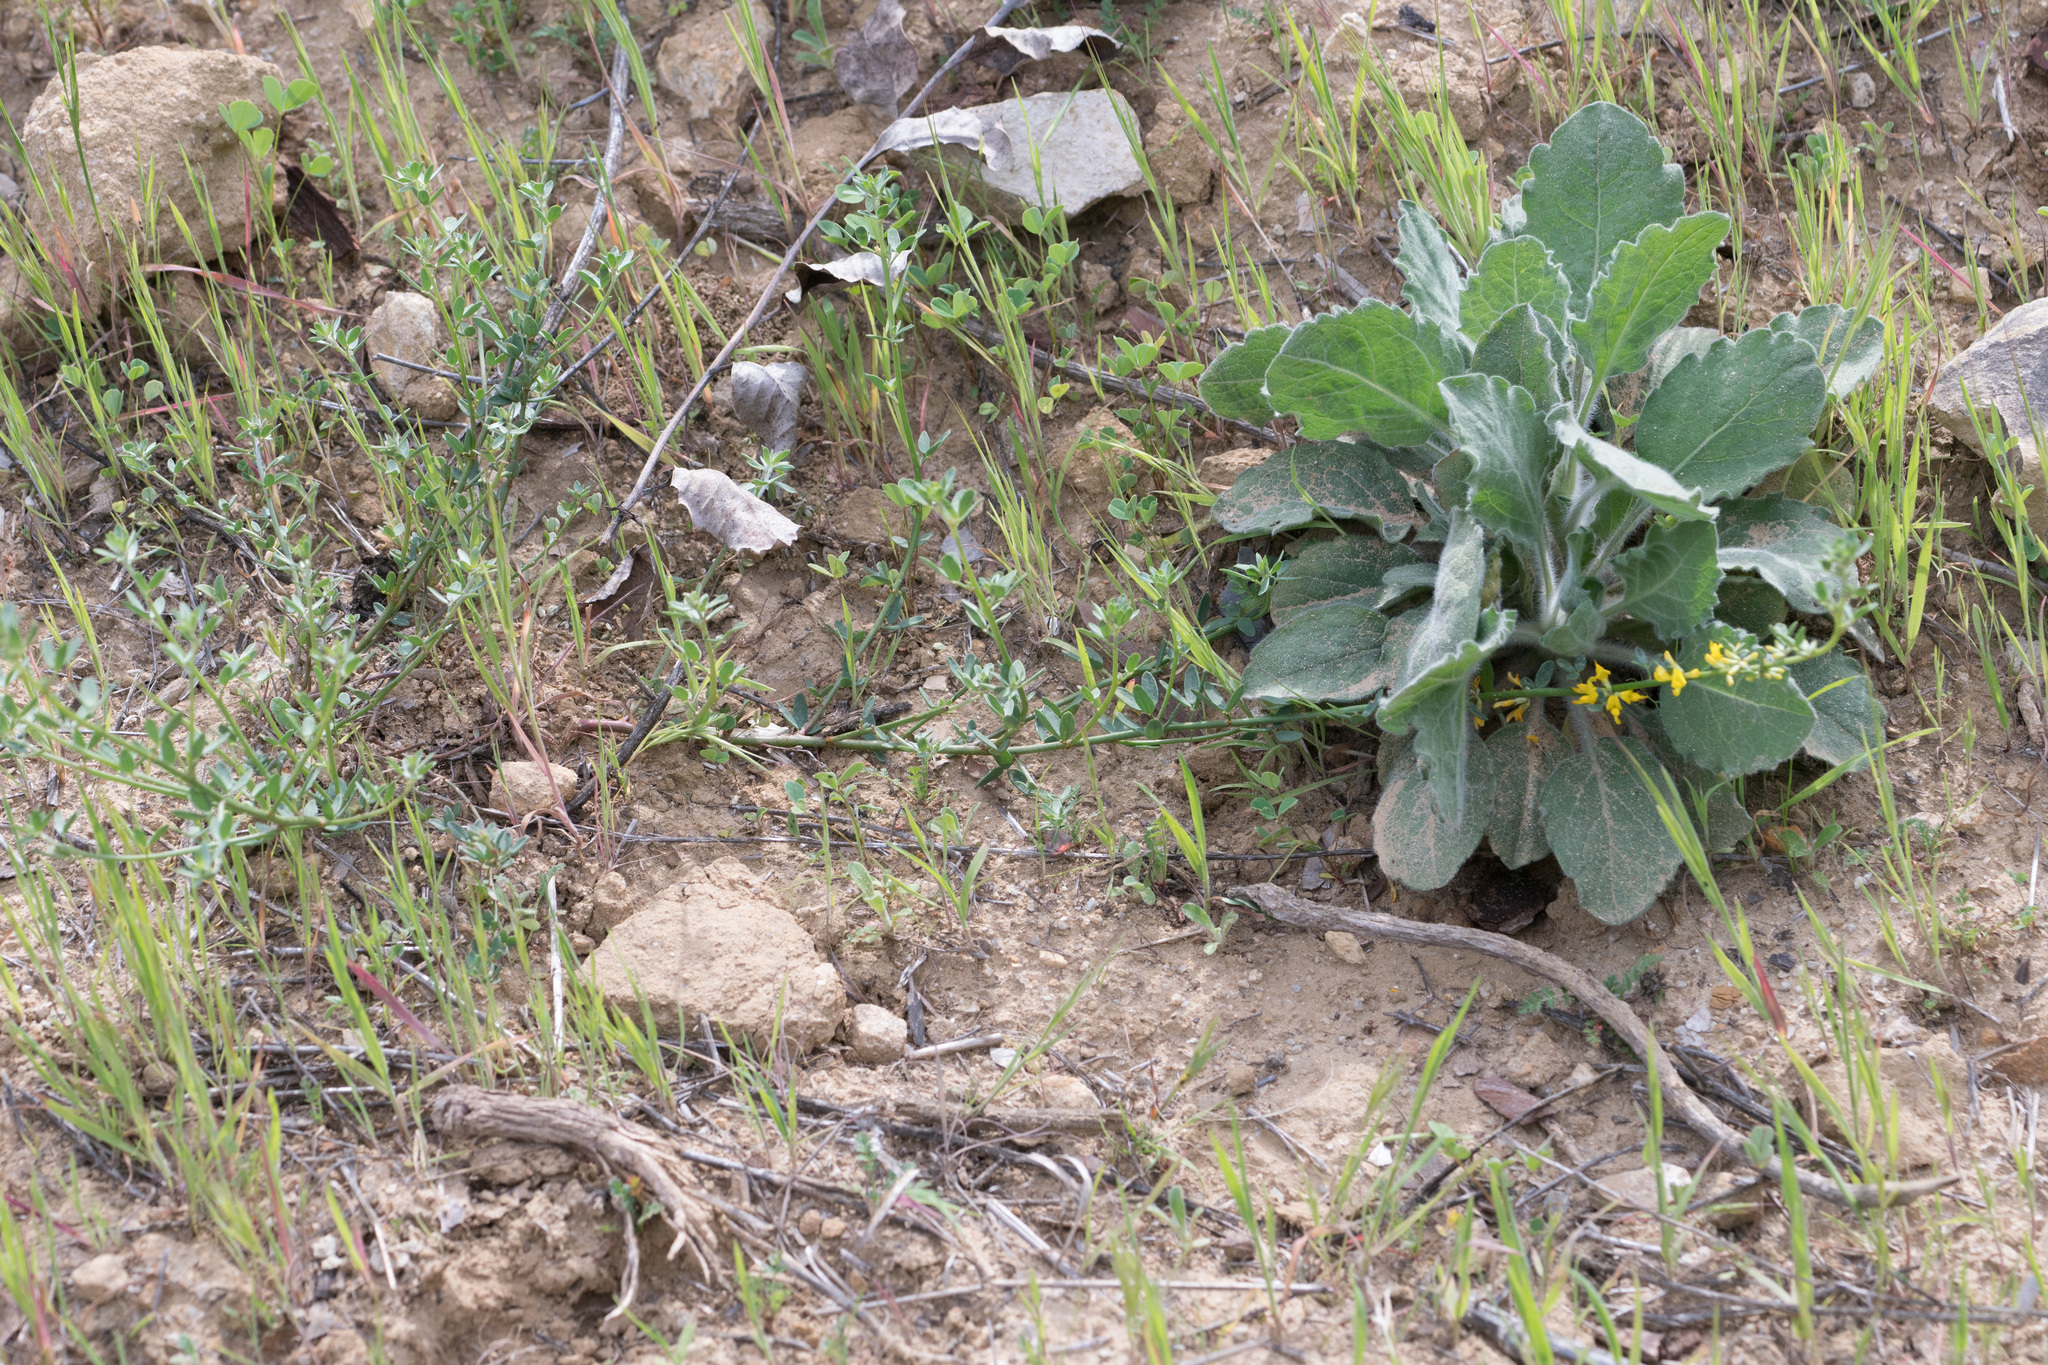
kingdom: Plantae
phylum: Tracheophyta
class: Magnoliopsida
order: Fabales
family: Fabaceae
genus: Acmispon
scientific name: Acmispon glaber
